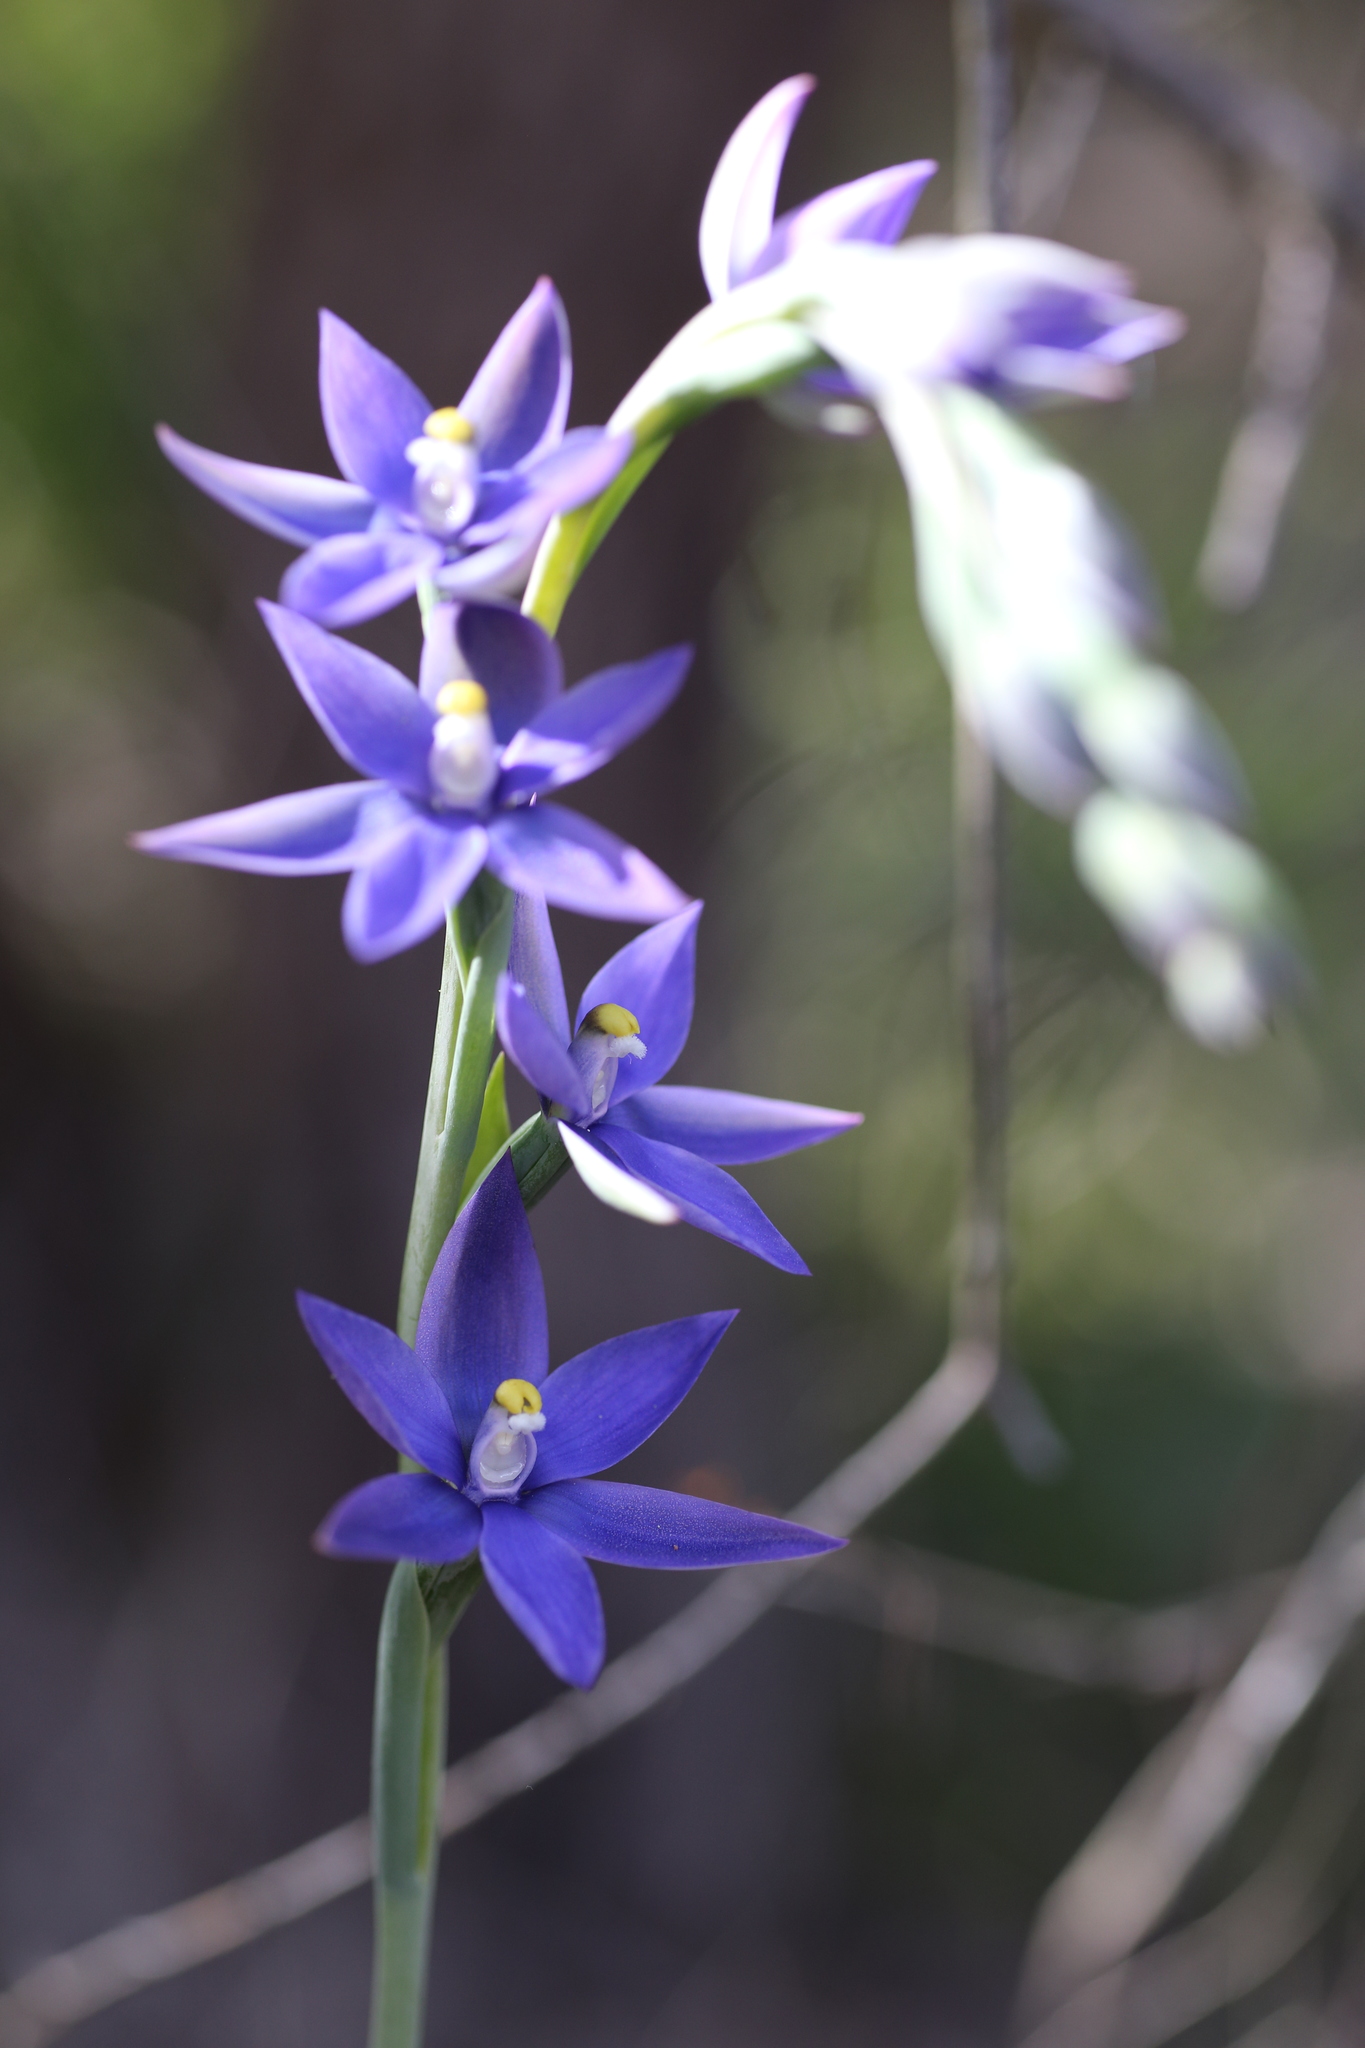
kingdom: Plantae
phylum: Tracheophyta
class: Liliopsida
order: Asparagales
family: Orchidaceae
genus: Thelymitra
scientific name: Thelymitra macrophylla
